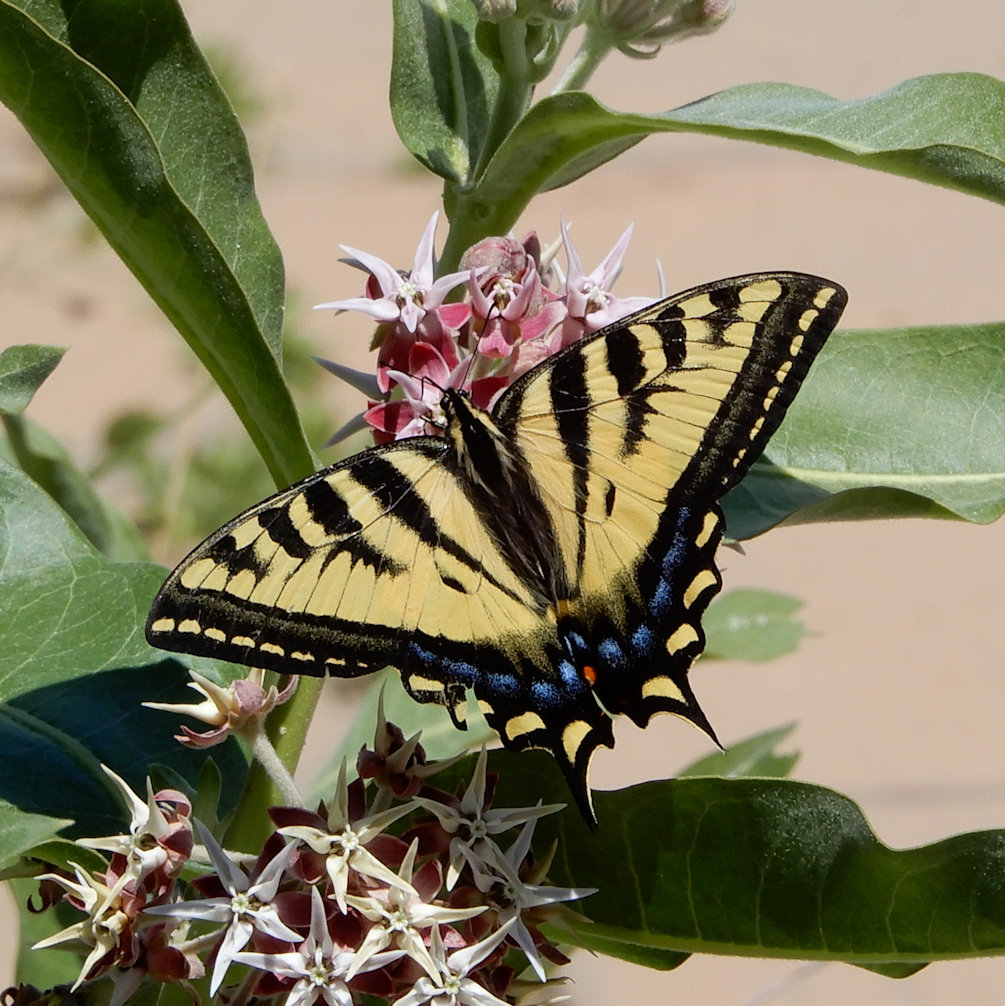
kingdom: Animalia
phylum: Arthropoda
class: Insecta
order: Lepidoptera
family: Papilionidae
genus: Papilio
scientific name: Papilio rutulus
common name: Western tiger swallowtail
